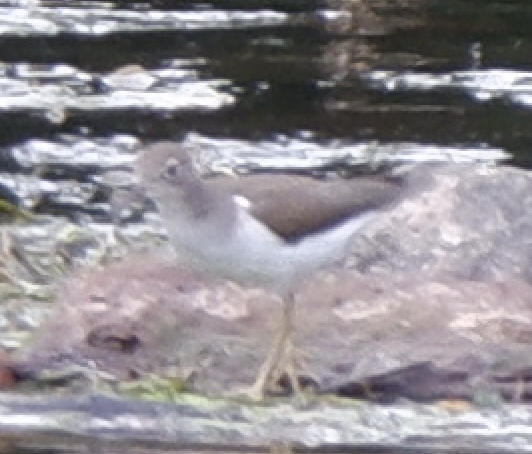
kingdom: Animalia
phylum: Chordata
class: Aves
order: Charadriiformes
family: Scolopacidae
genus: Actitis
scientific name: Actitis macularius
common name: Spotted sandpiper
